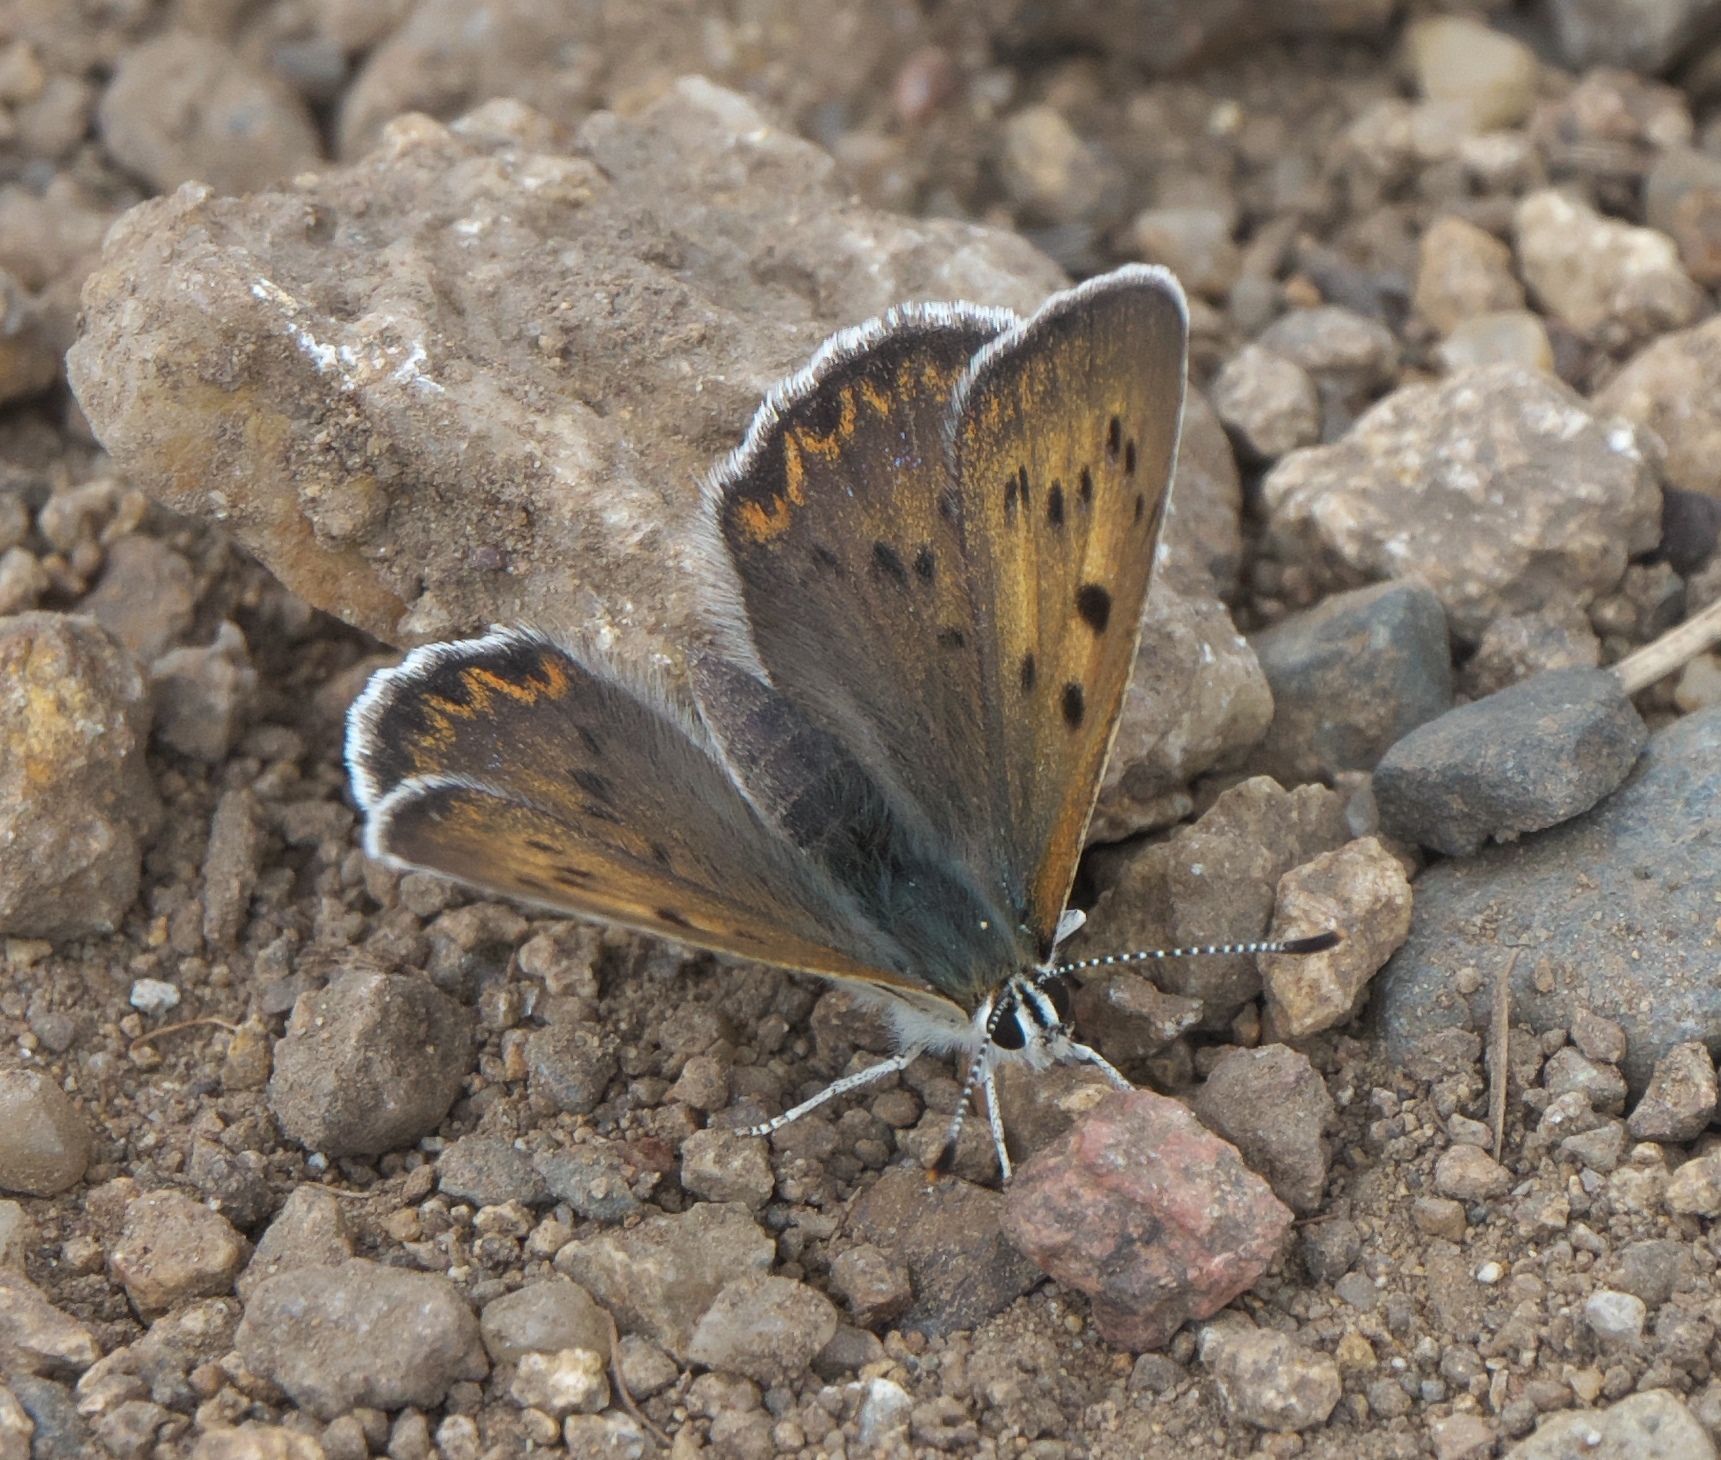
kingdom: Animalia
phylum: Arthropoda
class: Insecta
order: Lepidoptera
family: Lycaenidae
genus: Tharsalea
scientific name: Tharsalea dorcas
